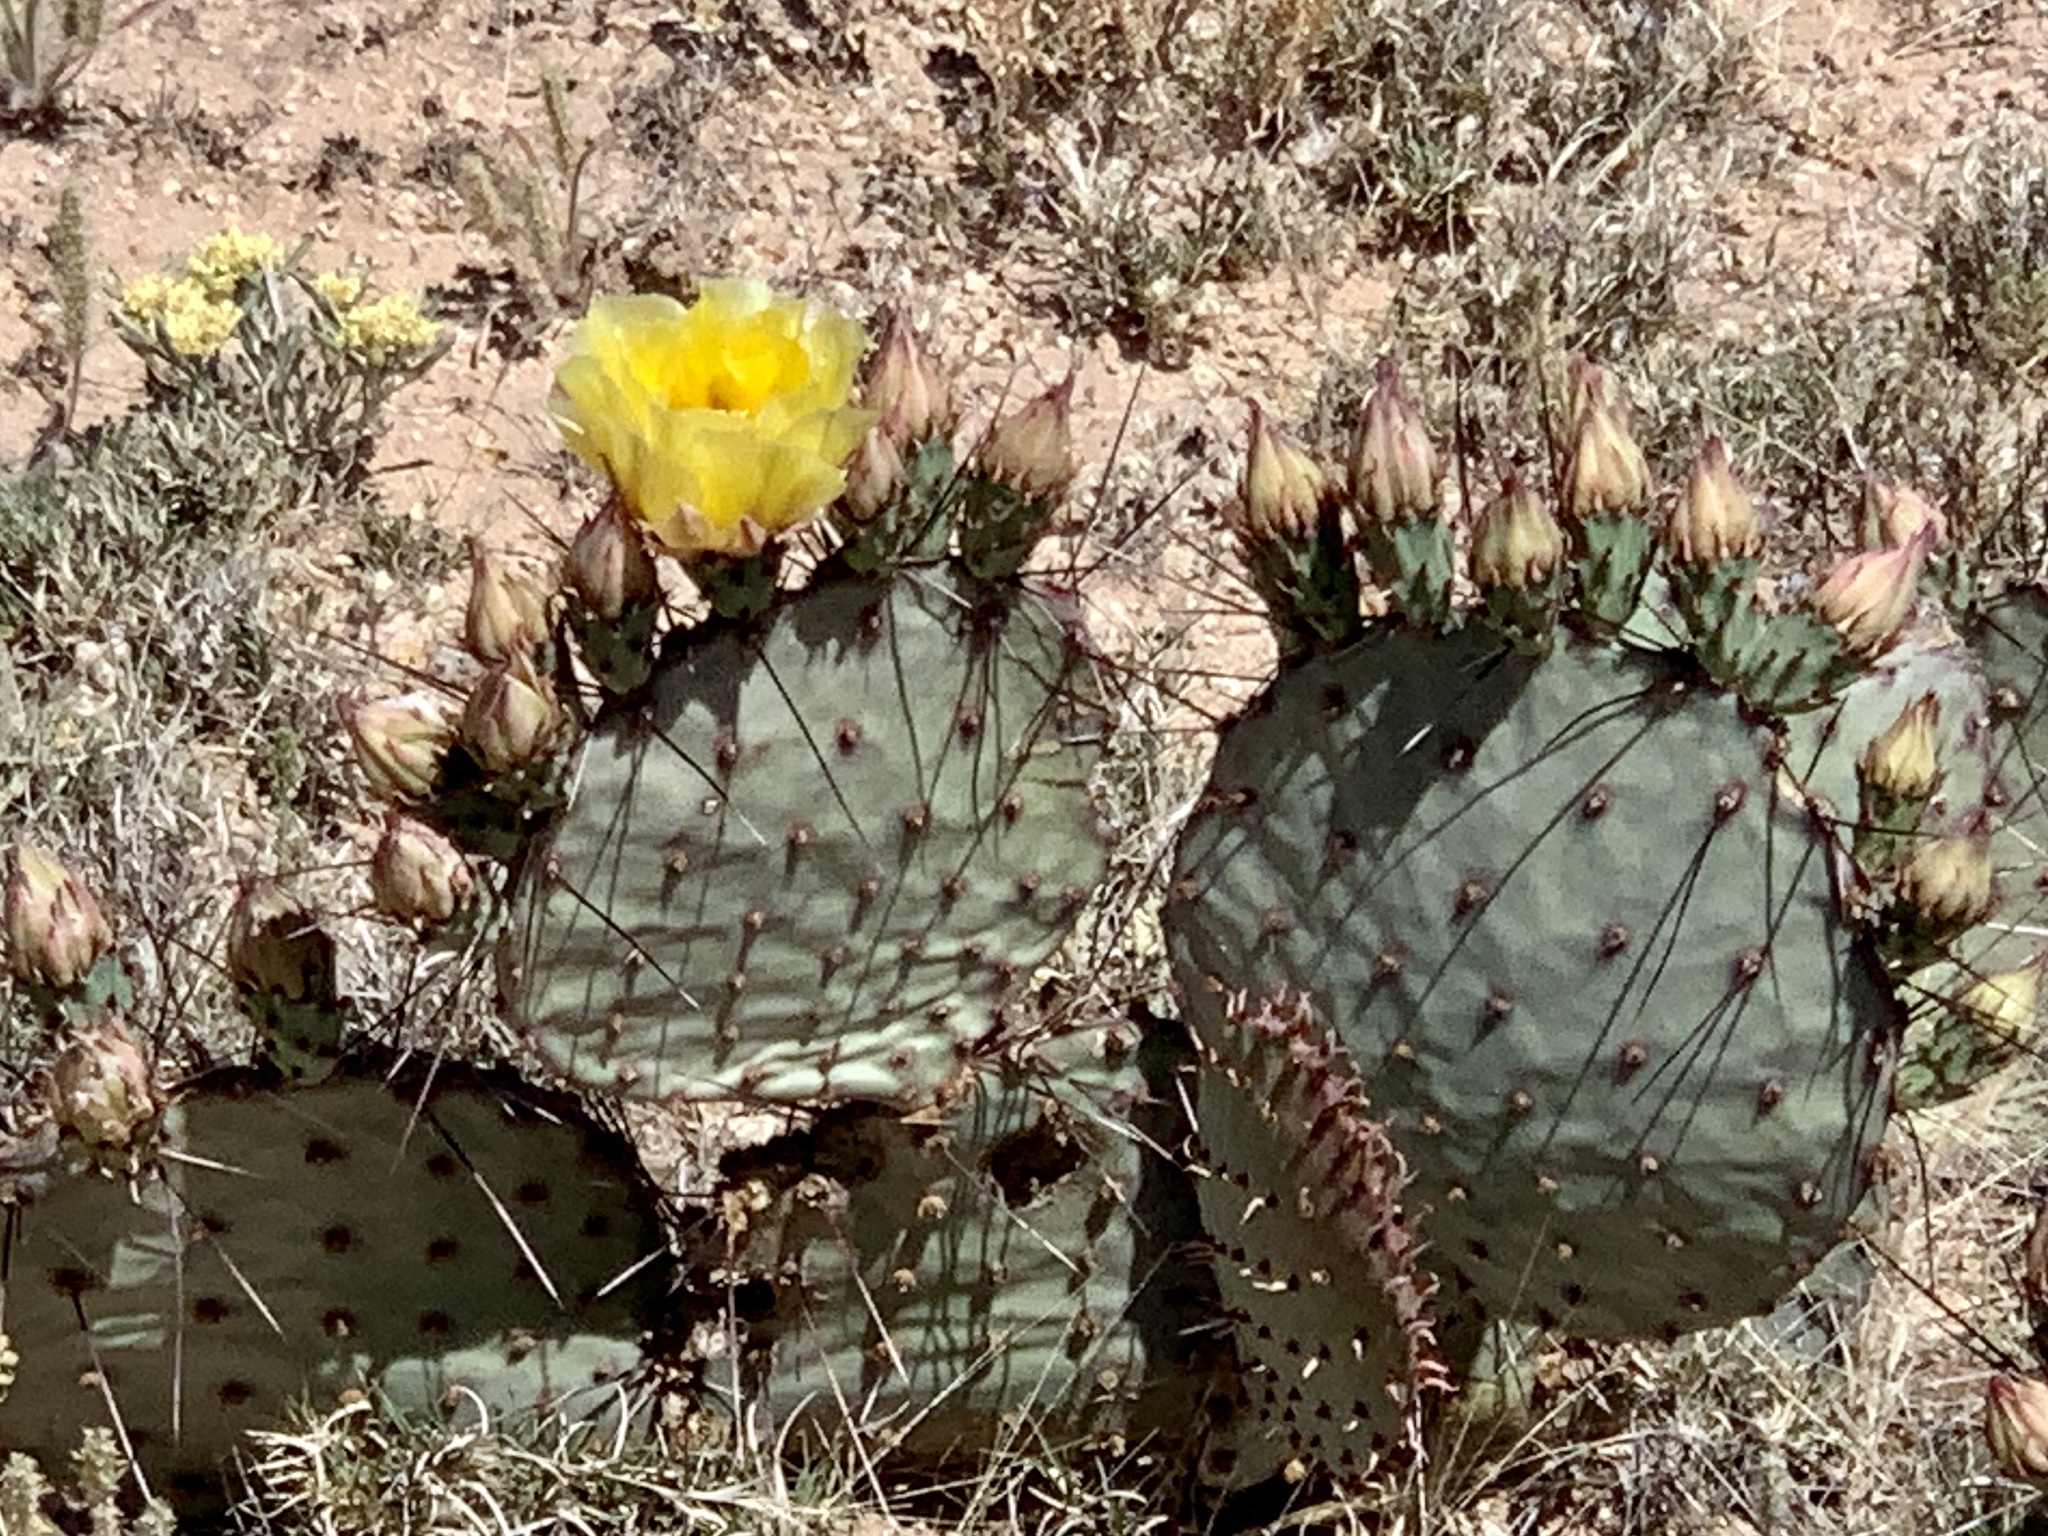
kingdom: Plantae
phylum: Tracheophyta
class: Magnoliopsida
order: Caryophyllales
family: Cactaceae
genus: Opuntia
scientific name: Opuntia macrocentra
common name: Purple prickly-pear
